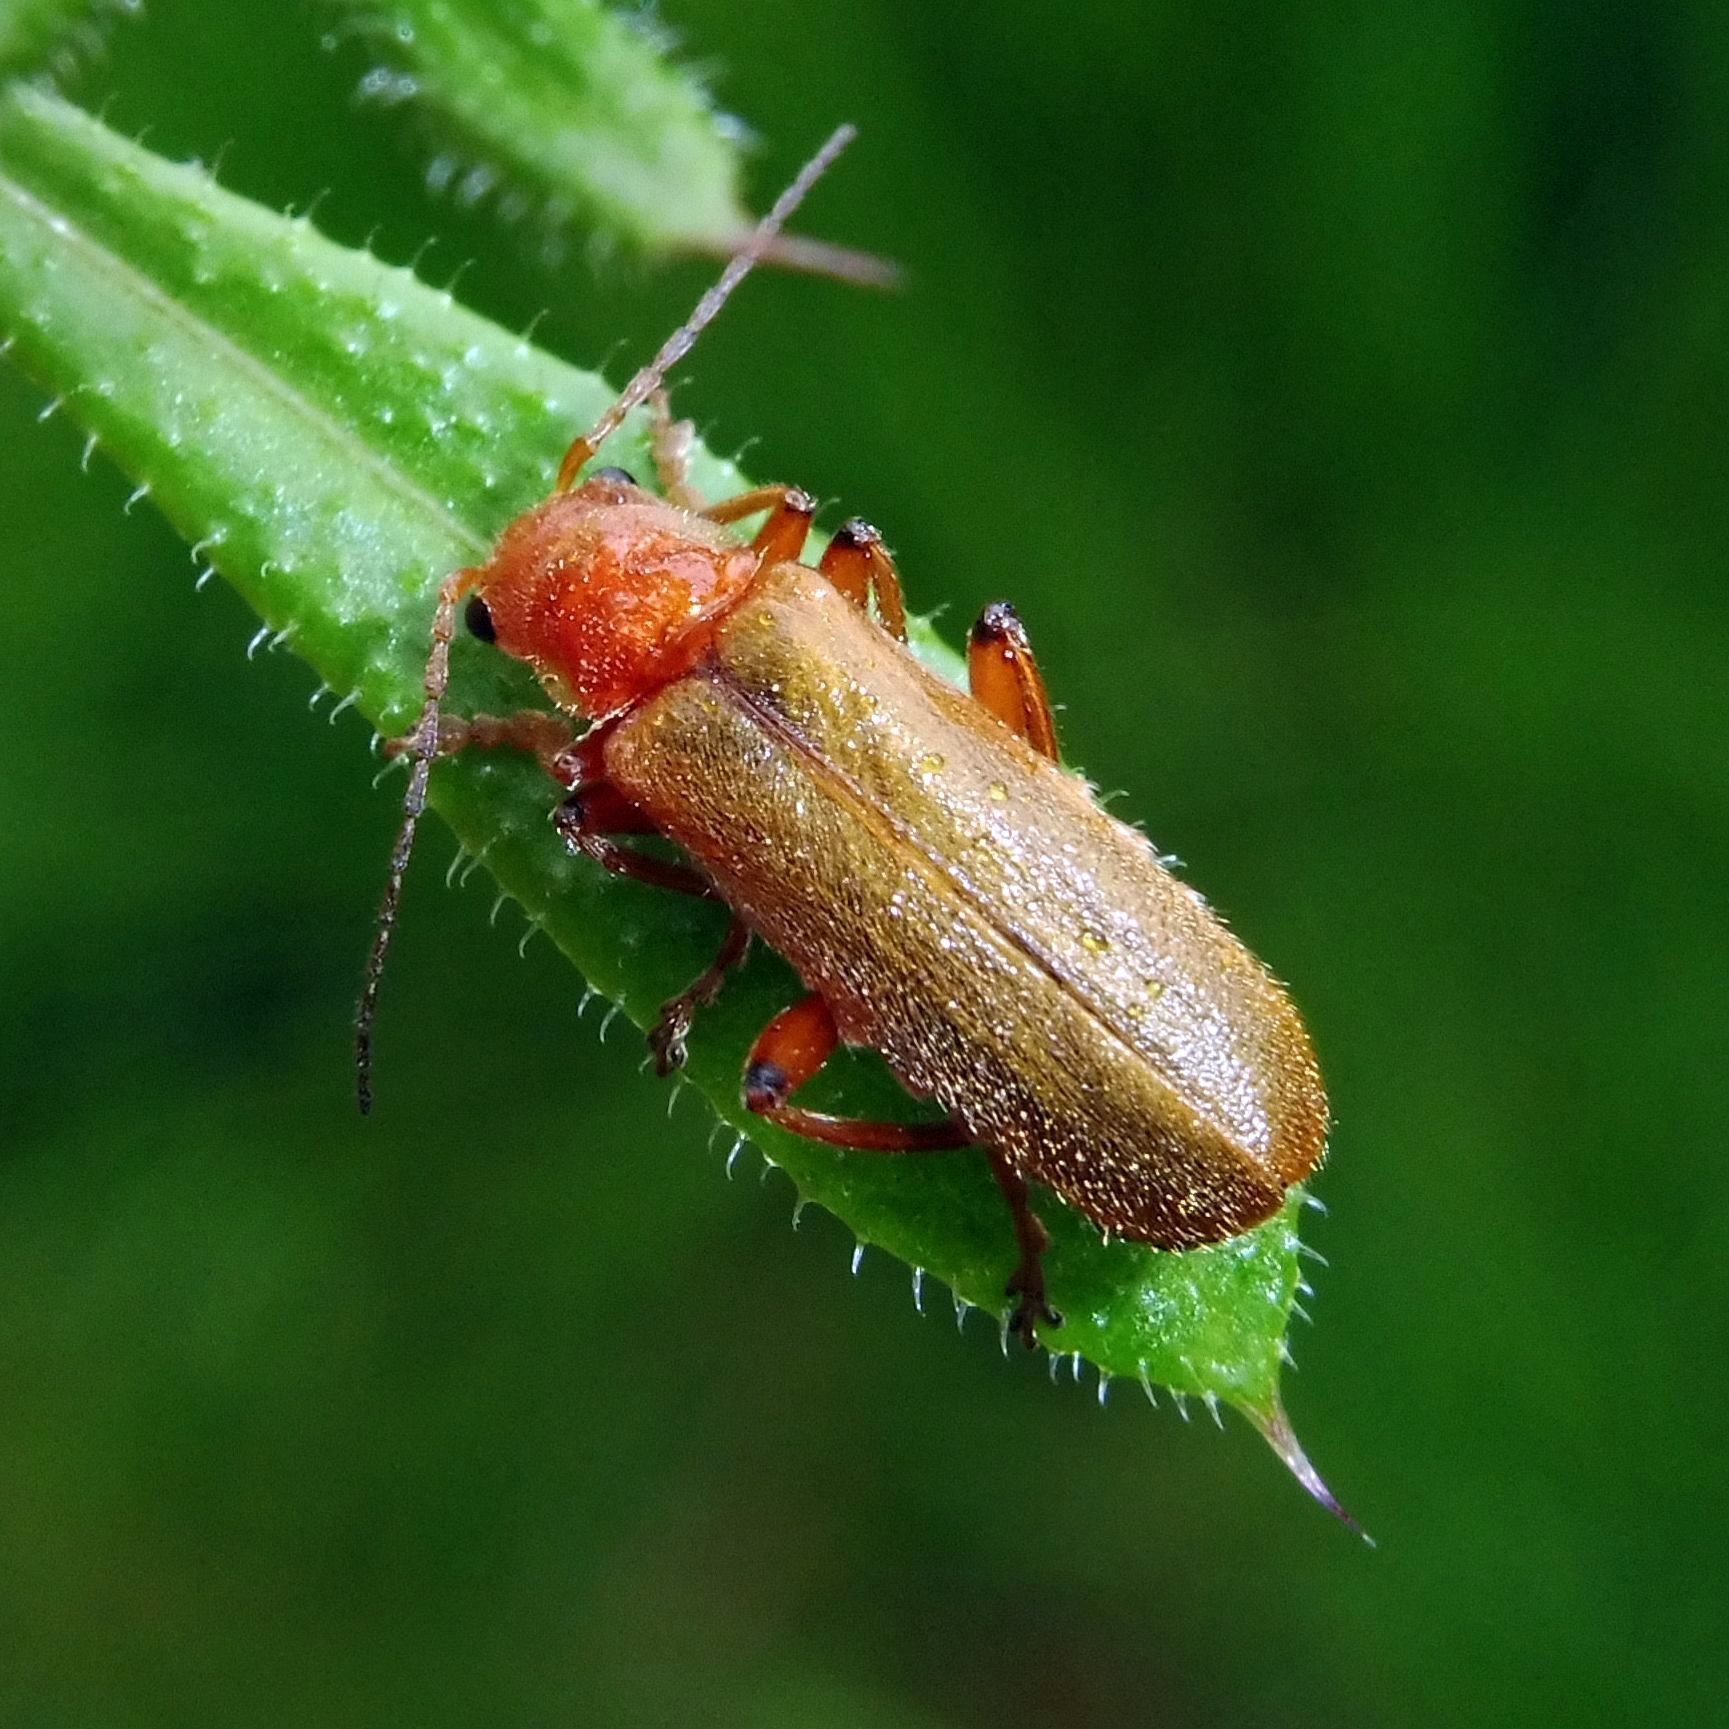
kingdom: Animalia
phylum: Arthropoda
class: Insecta
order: Coleoptera
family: Cantharidae
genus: Cantharis
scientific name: Cantharis pallida
